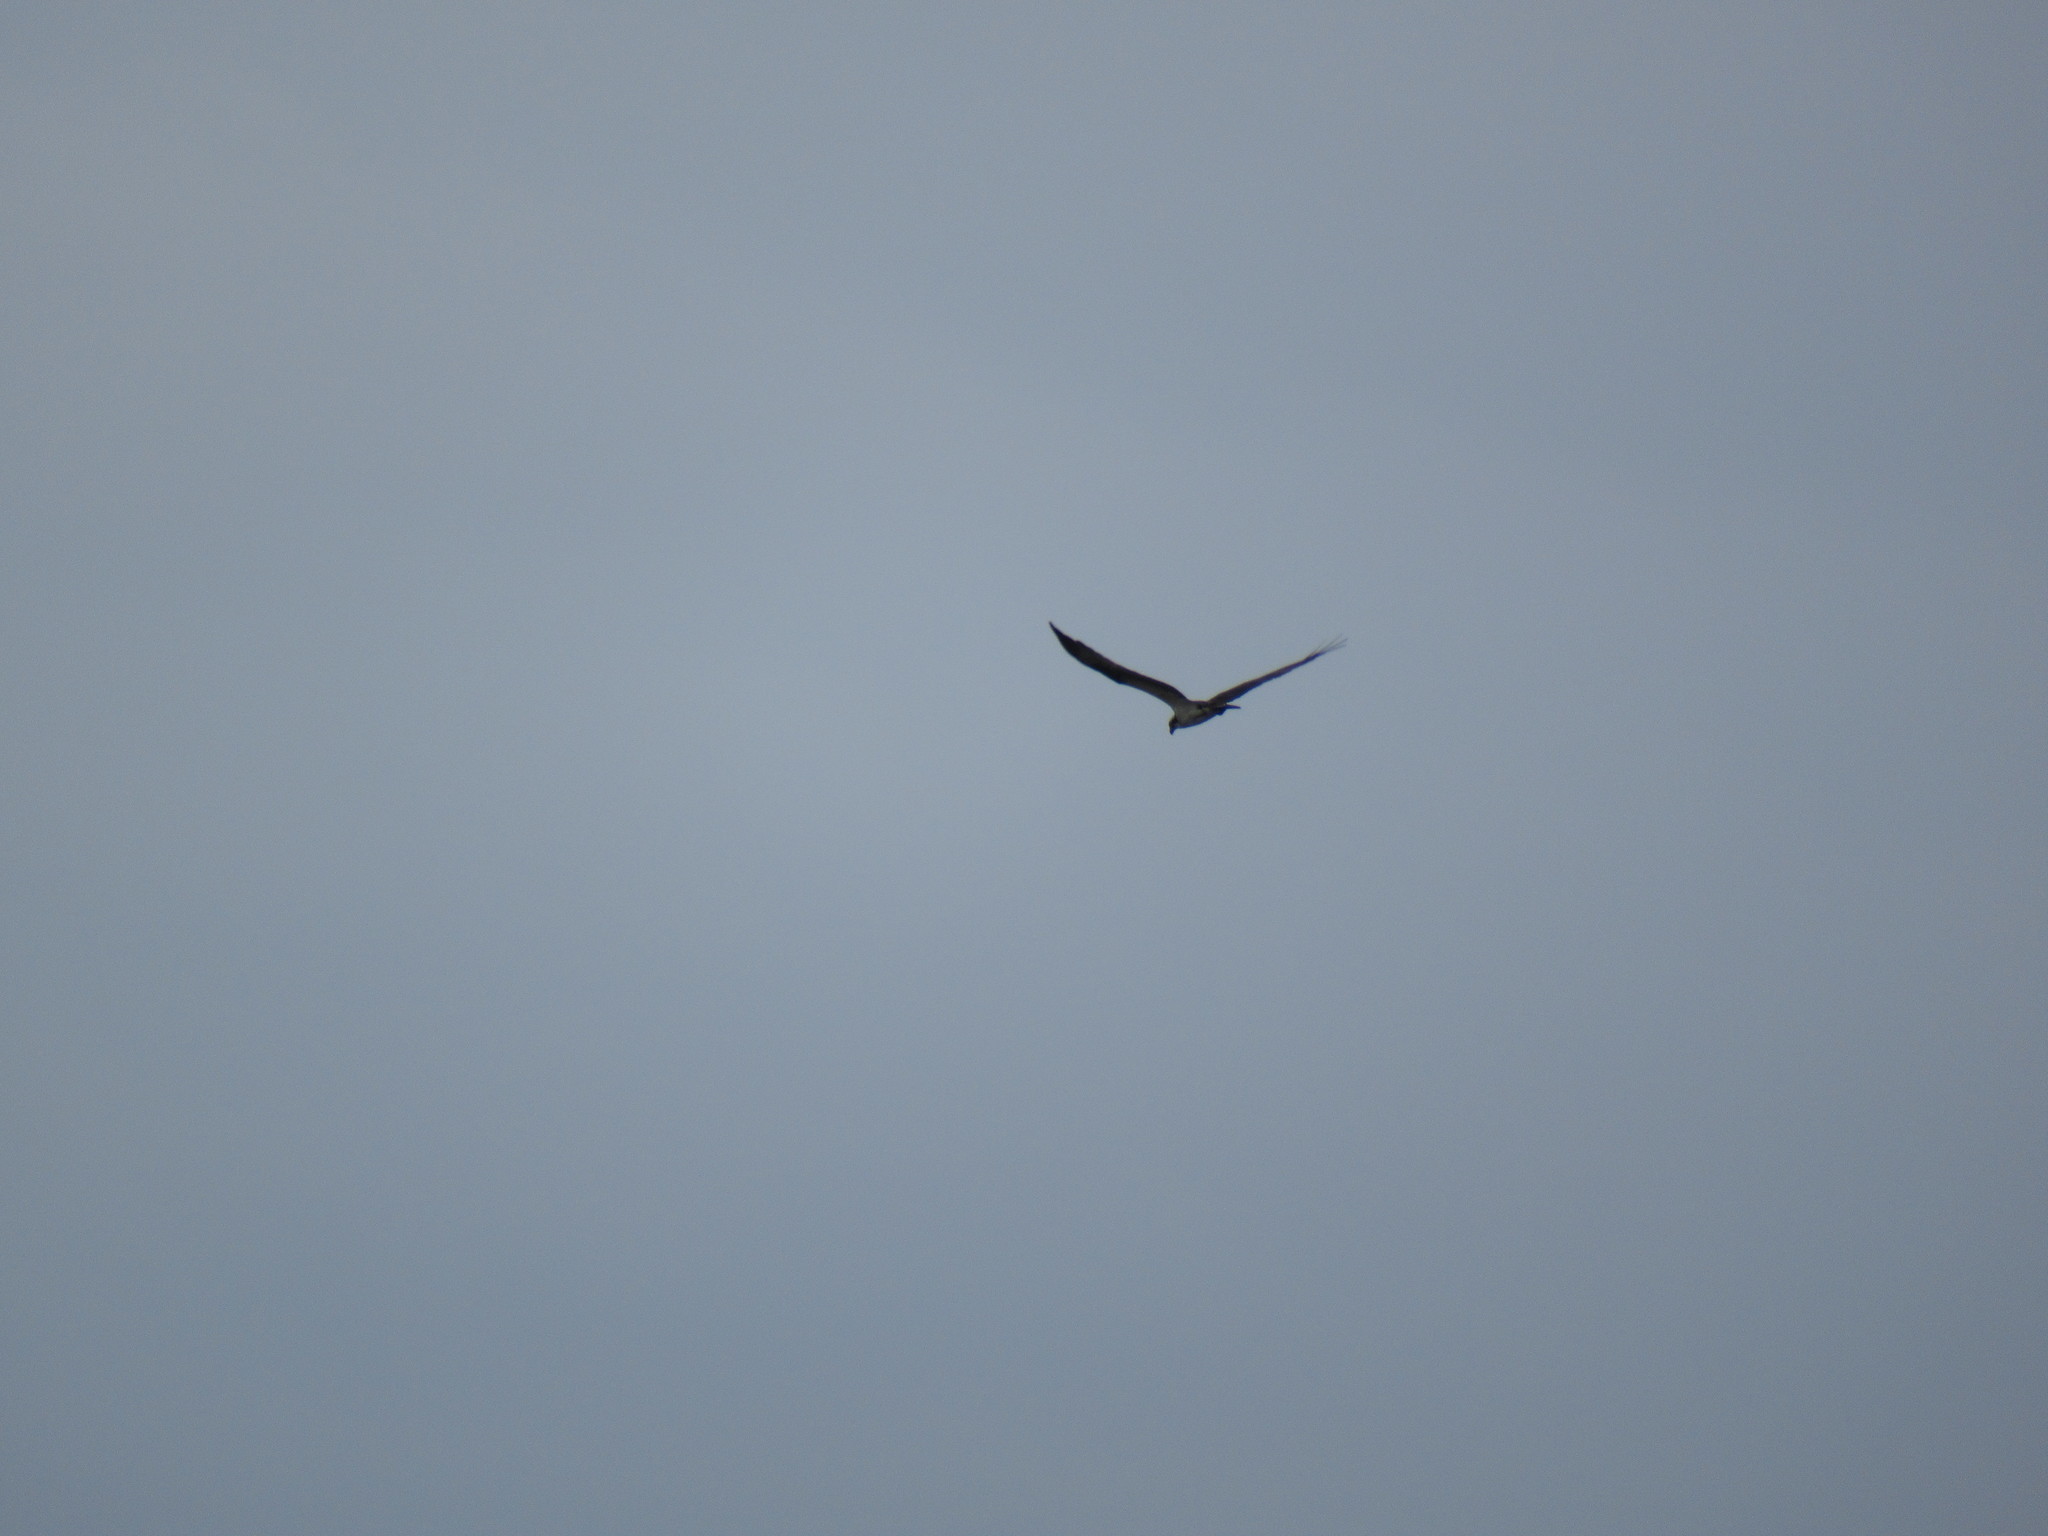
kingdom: Animalia
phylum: Chordata
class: Aves
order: Accipitriformes
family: Pandionidae
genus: Pandion
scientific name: Pandion haliaetus
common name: Osprey
